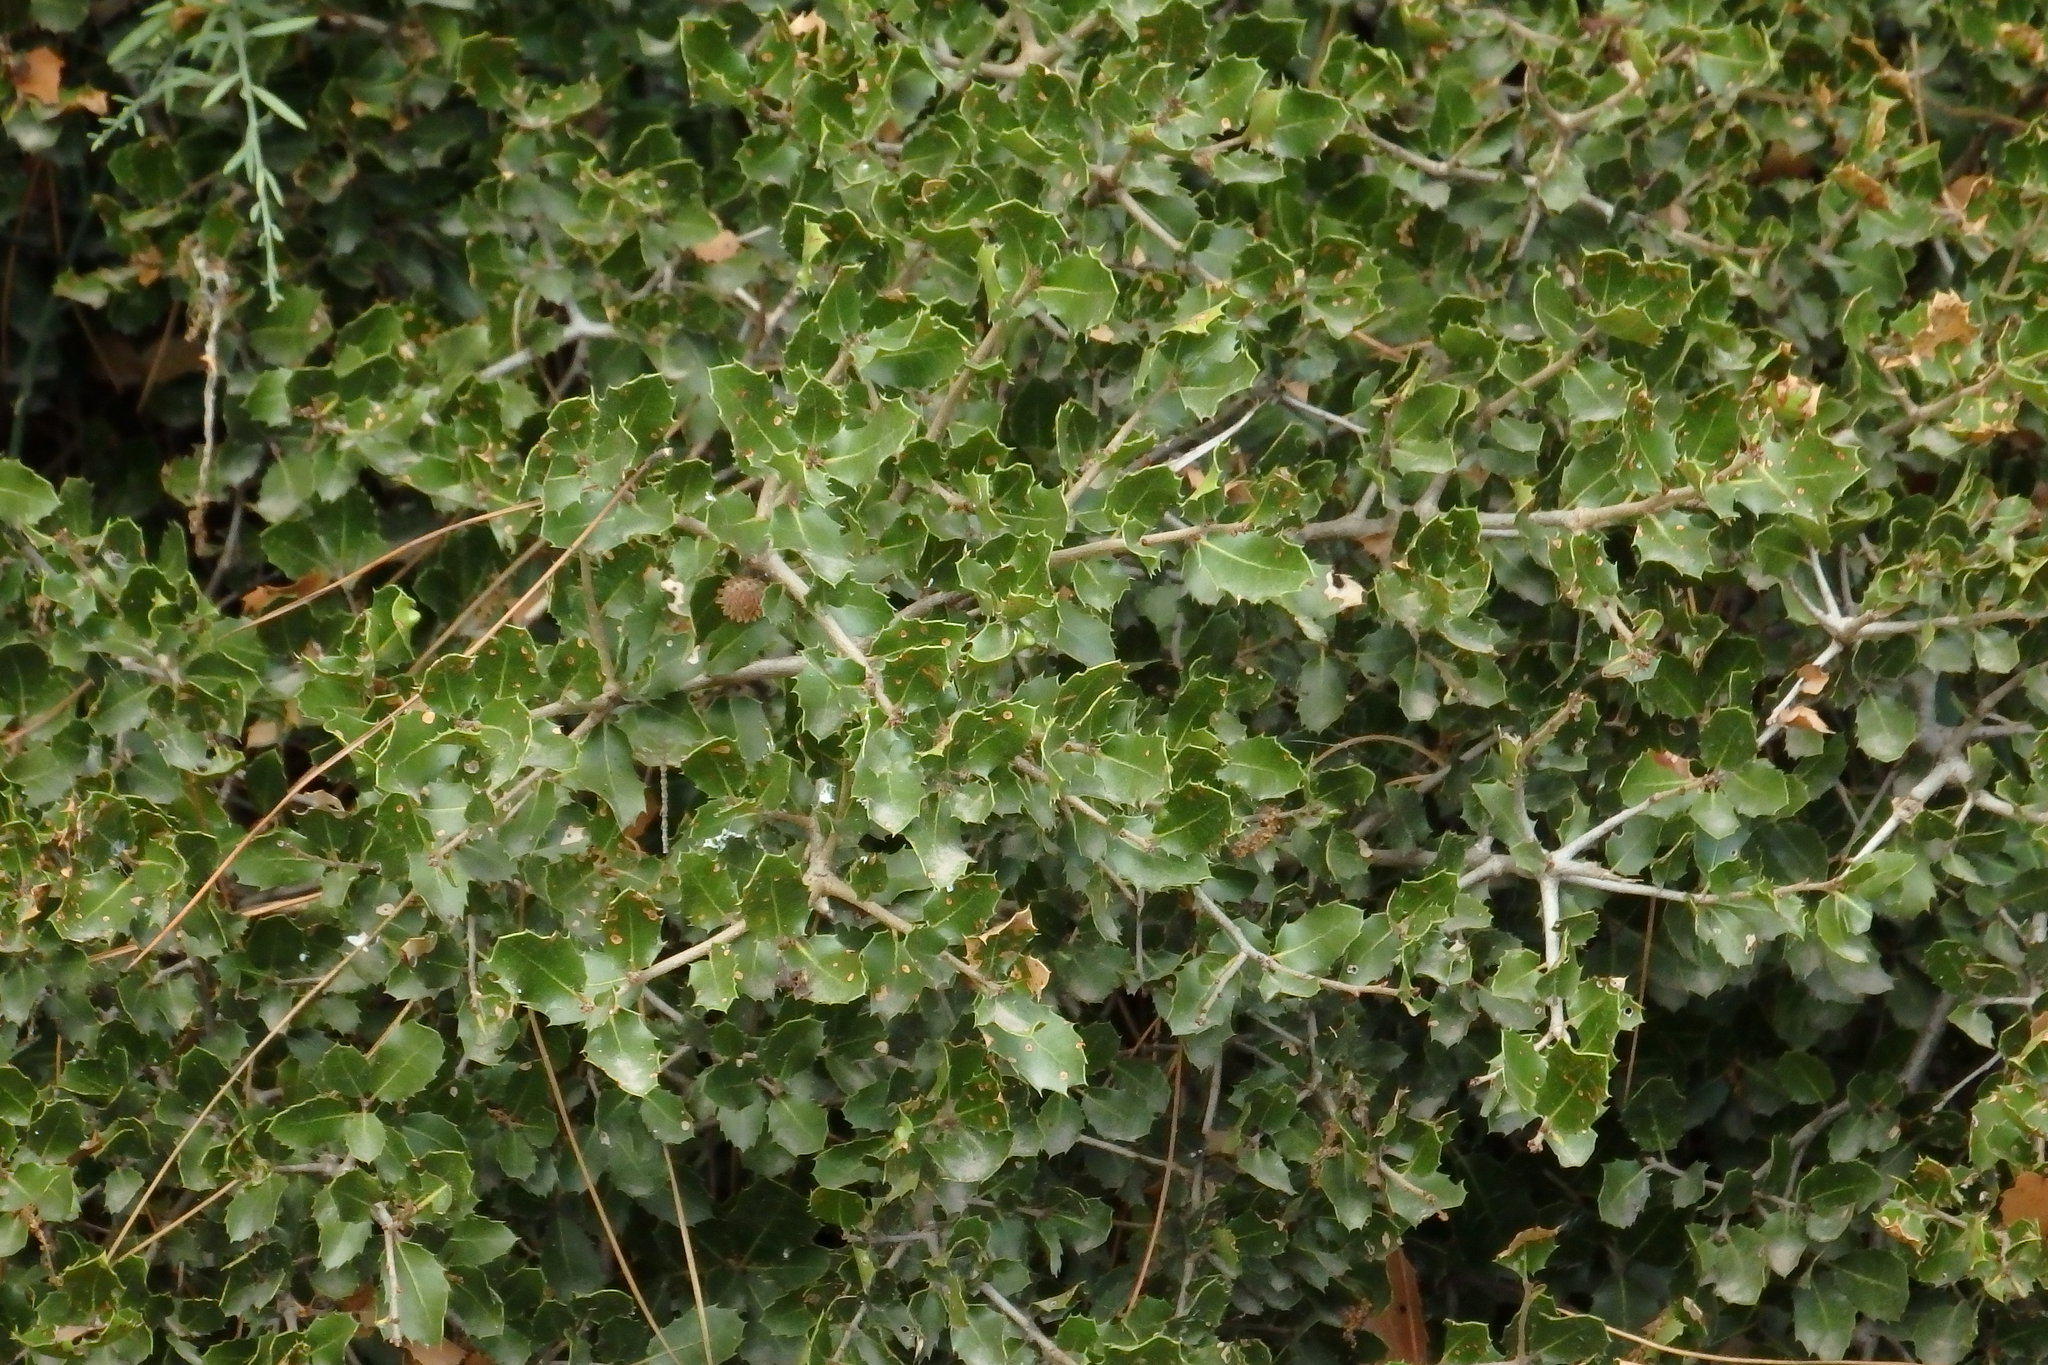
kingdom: Plantae
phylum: Tracheophyta
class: Magnoliopsida
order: Fagales
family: Fagaceae
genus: Quercus
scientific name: Quercus coccifera
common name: Kermes oak
